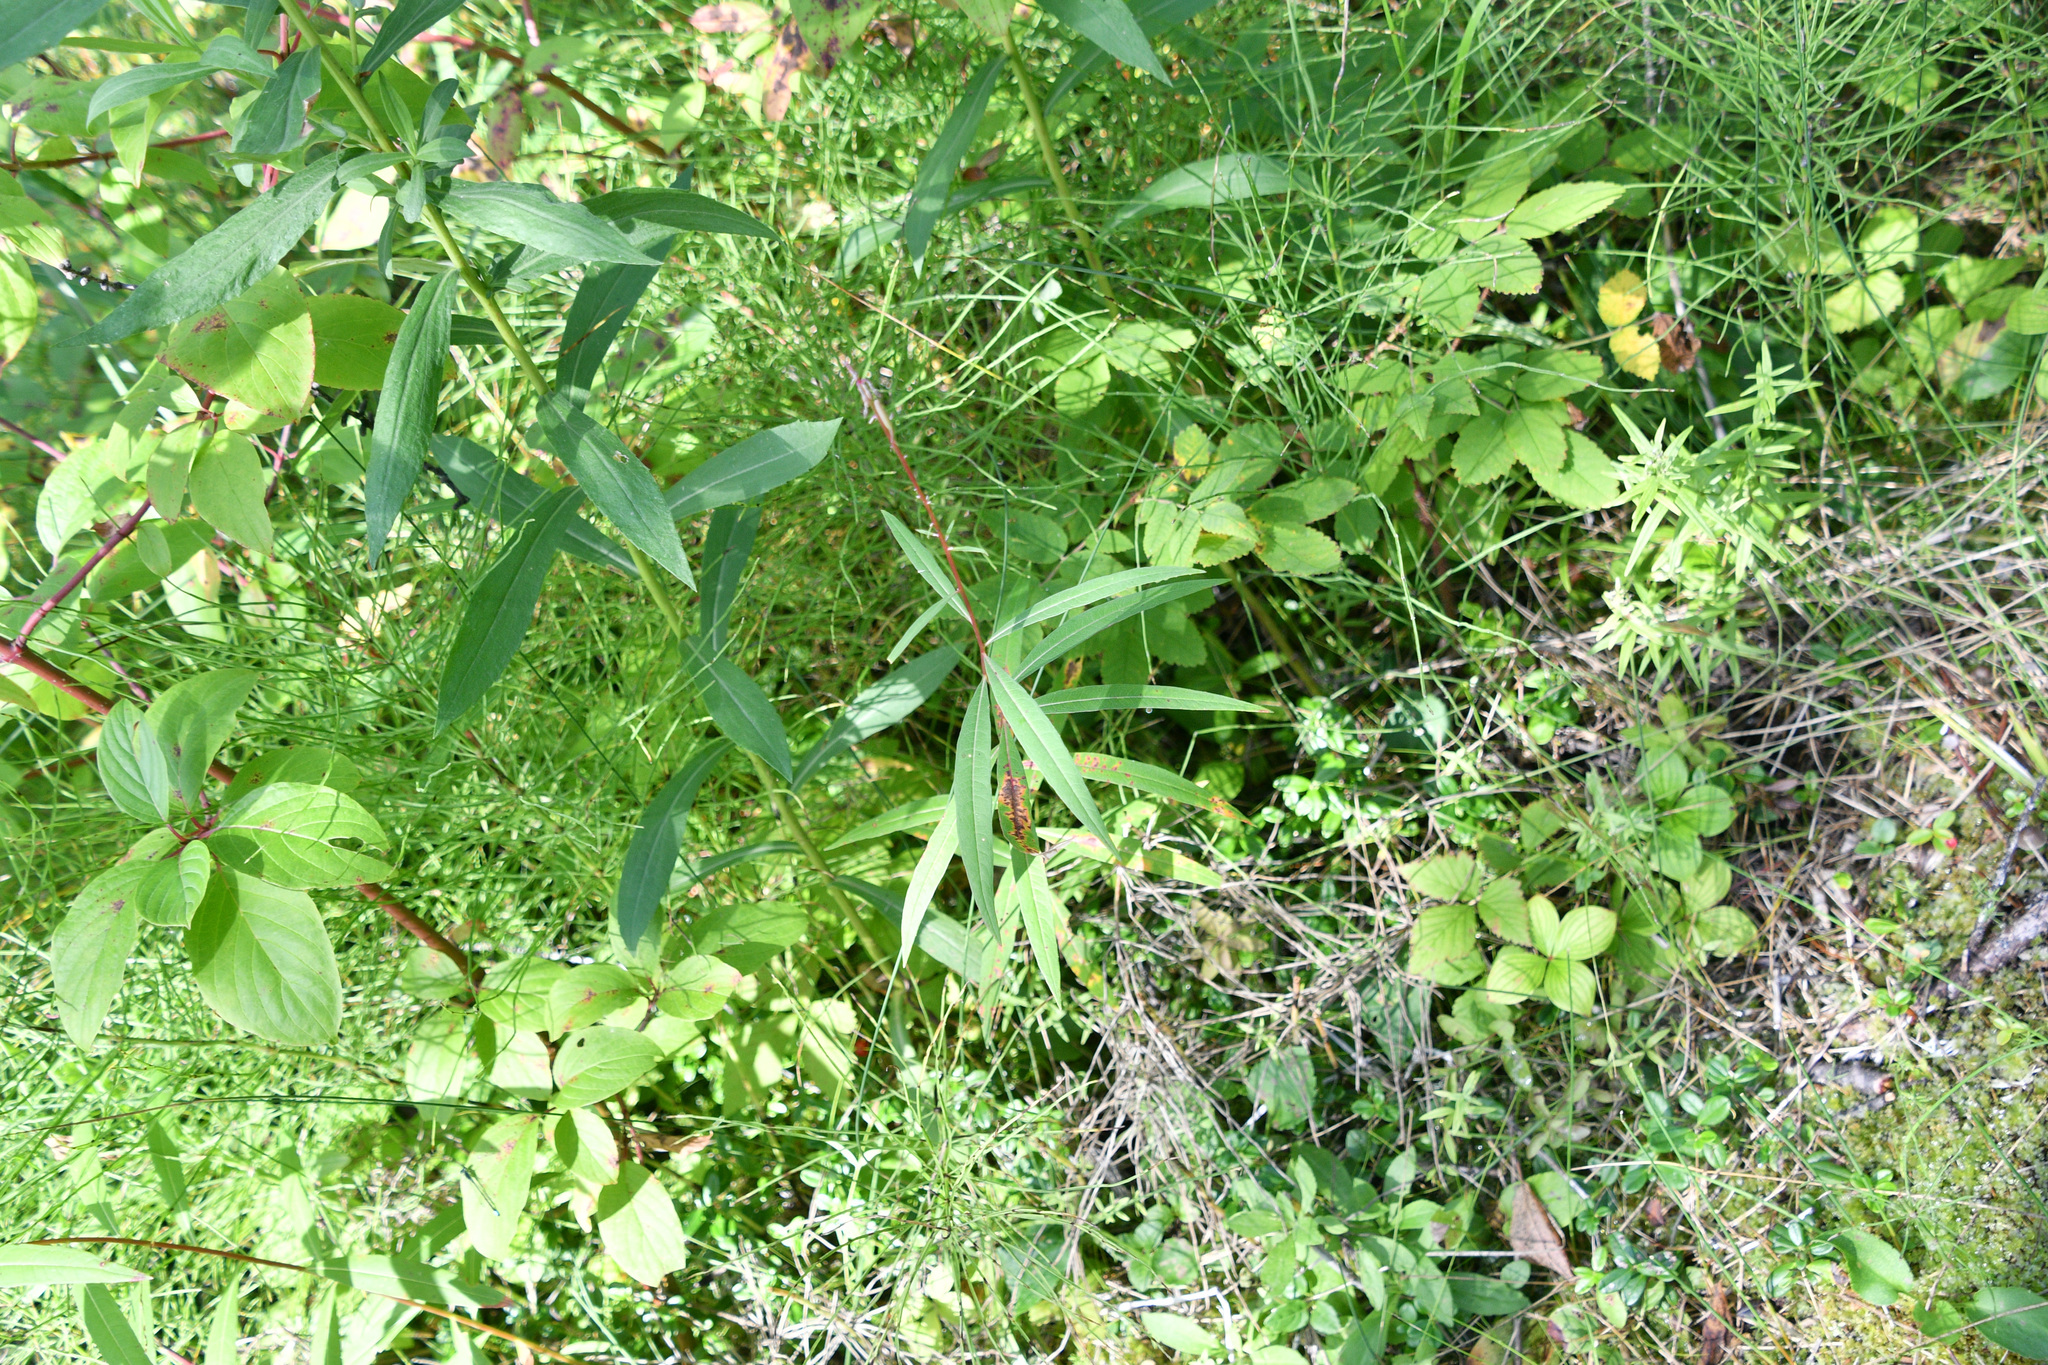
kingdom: Plantae
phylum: Tracheophyta
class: Magnoliopsida
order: Myrtales
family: Onagraceae
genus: Chamaenerion
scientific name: Chamaenerion angustifolium
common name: Fireweed
